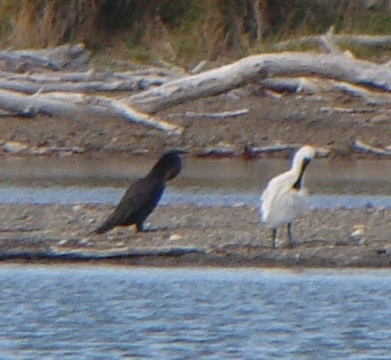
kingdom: Animalia
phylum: Chordata
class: Aves
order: Suliformes
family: Phalacrocoracidae
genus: Phalacrocorax
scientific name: Phalacrocorax carbo
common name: Great cormorant
